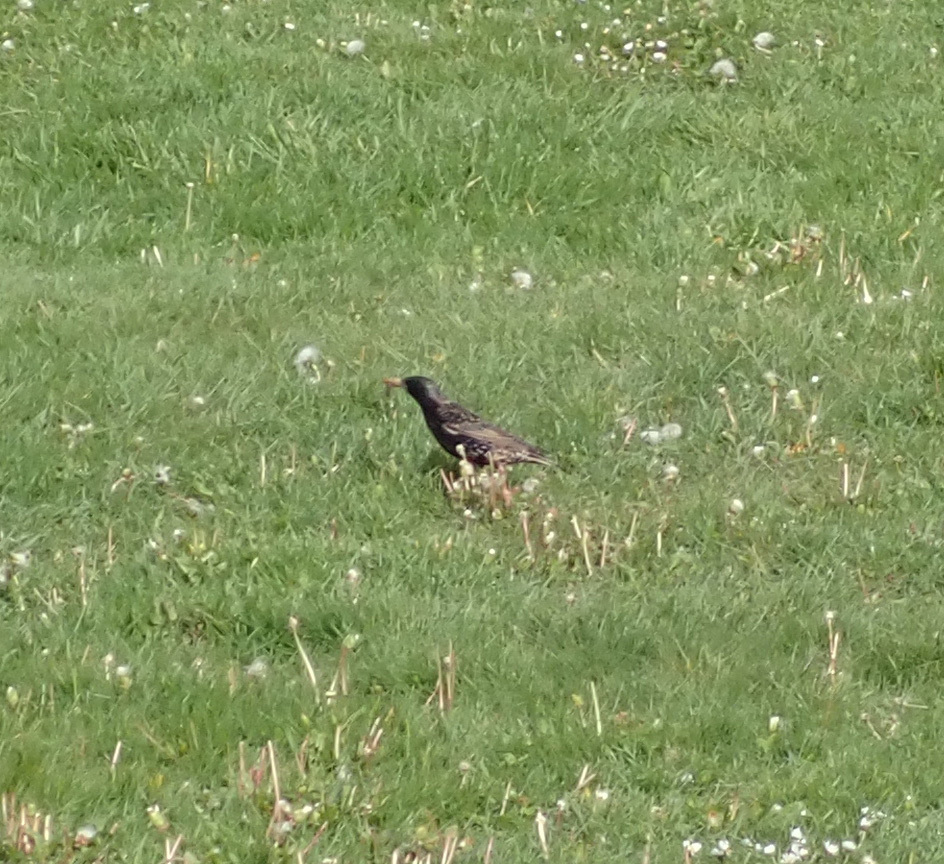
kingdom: Animalia
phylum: Chordata
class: Aves
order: Passeriformes
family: Sturnidae
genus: Sturnus
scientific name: Sturnus vulgaris
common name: Common starling
